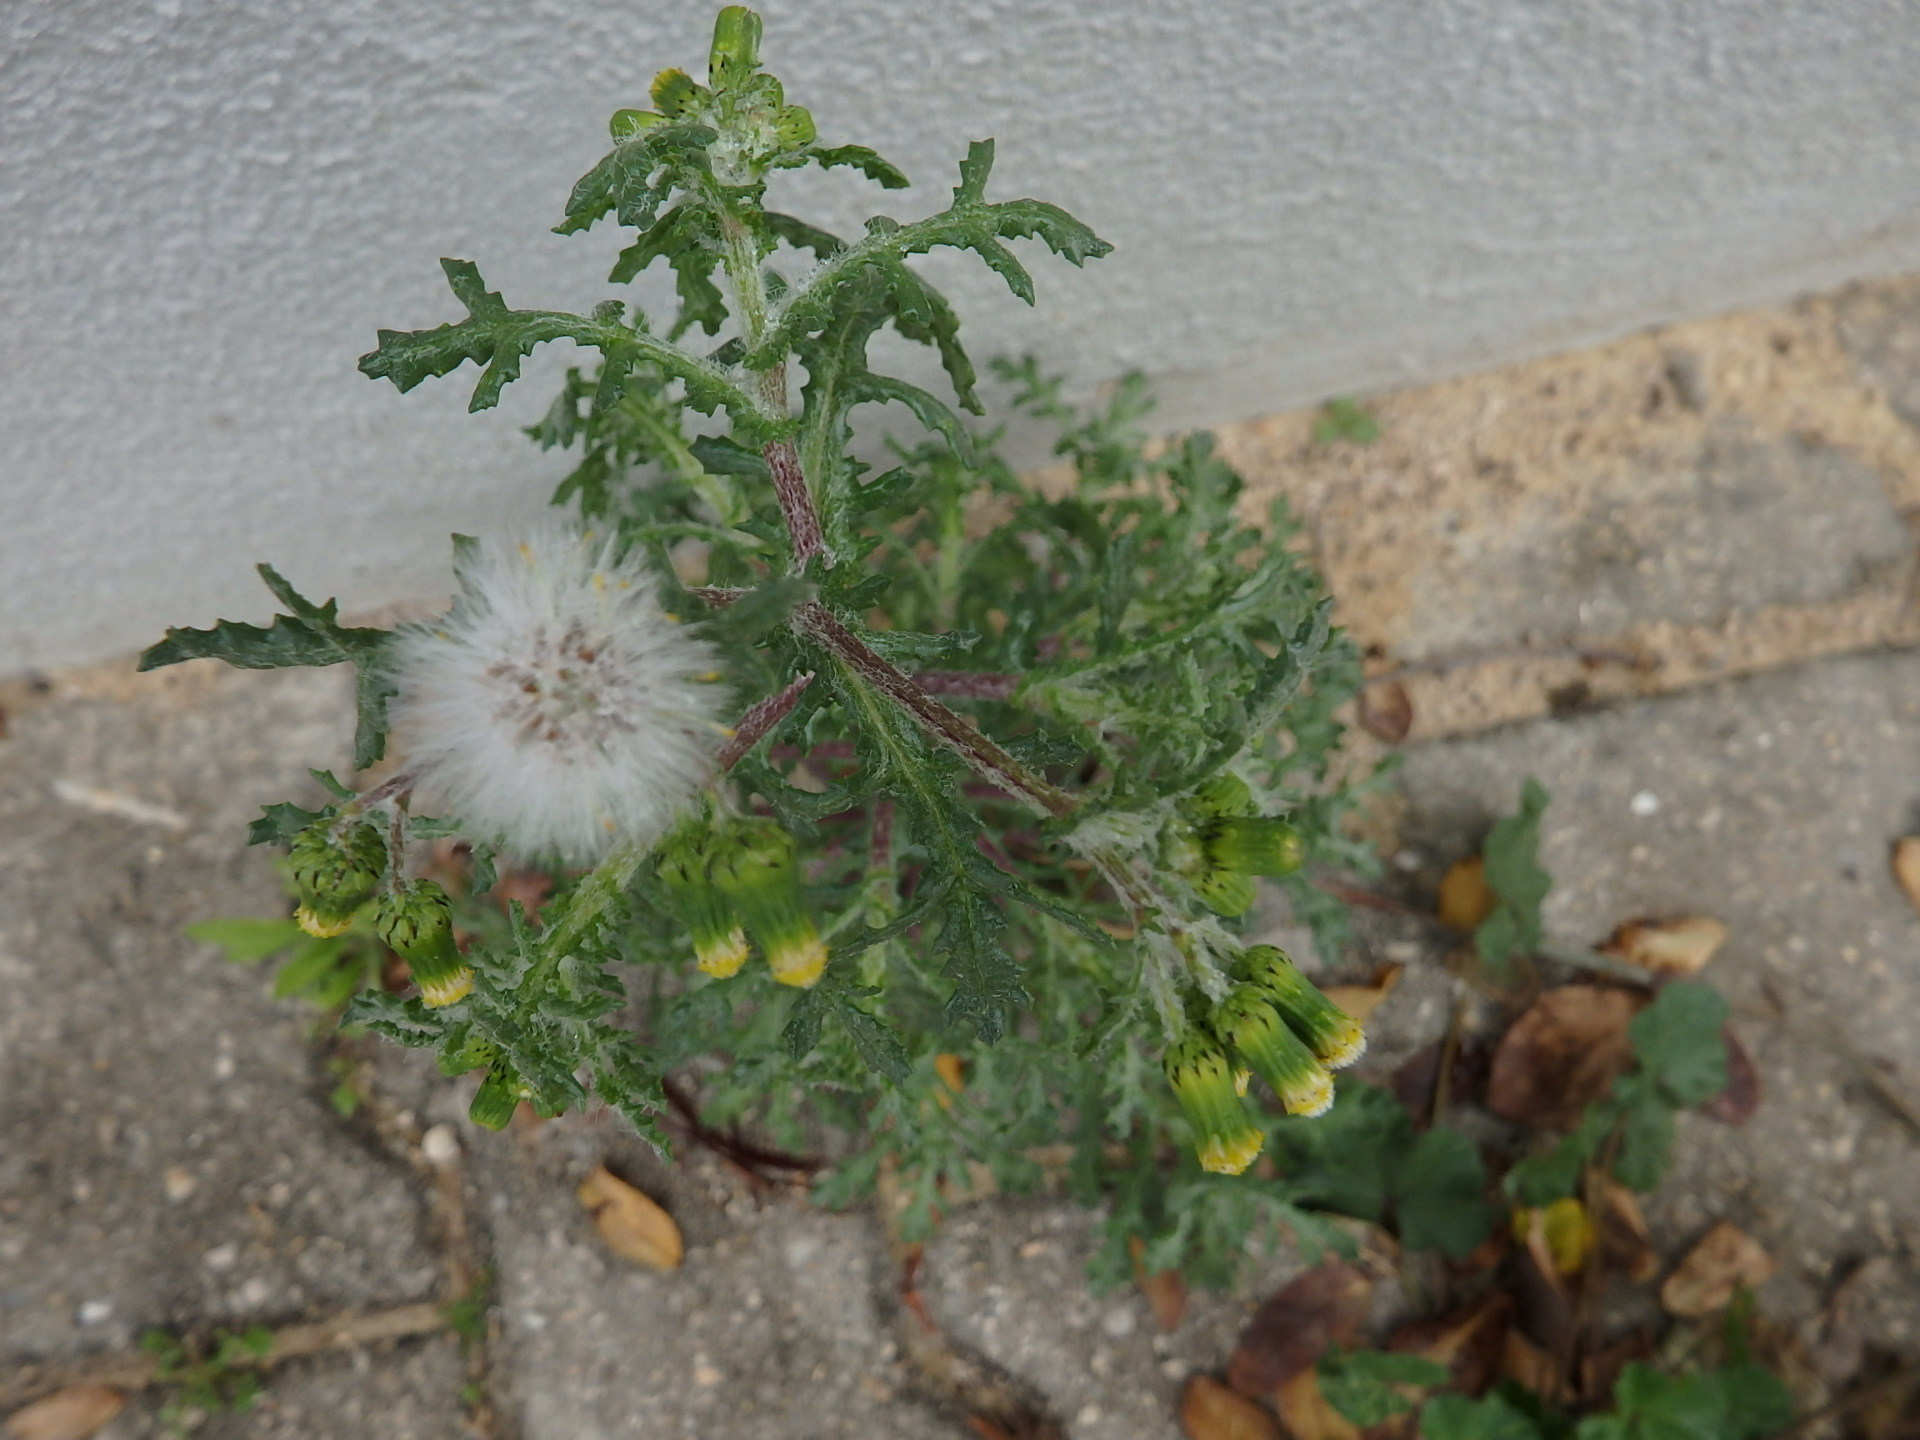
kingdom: Plantae
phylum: Tracheophyta
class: Magnoliopsida
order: Asterales
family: Asteraceae
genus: Senecio
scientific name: Senecio vulgaris
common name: Old-man-in-the-spring
